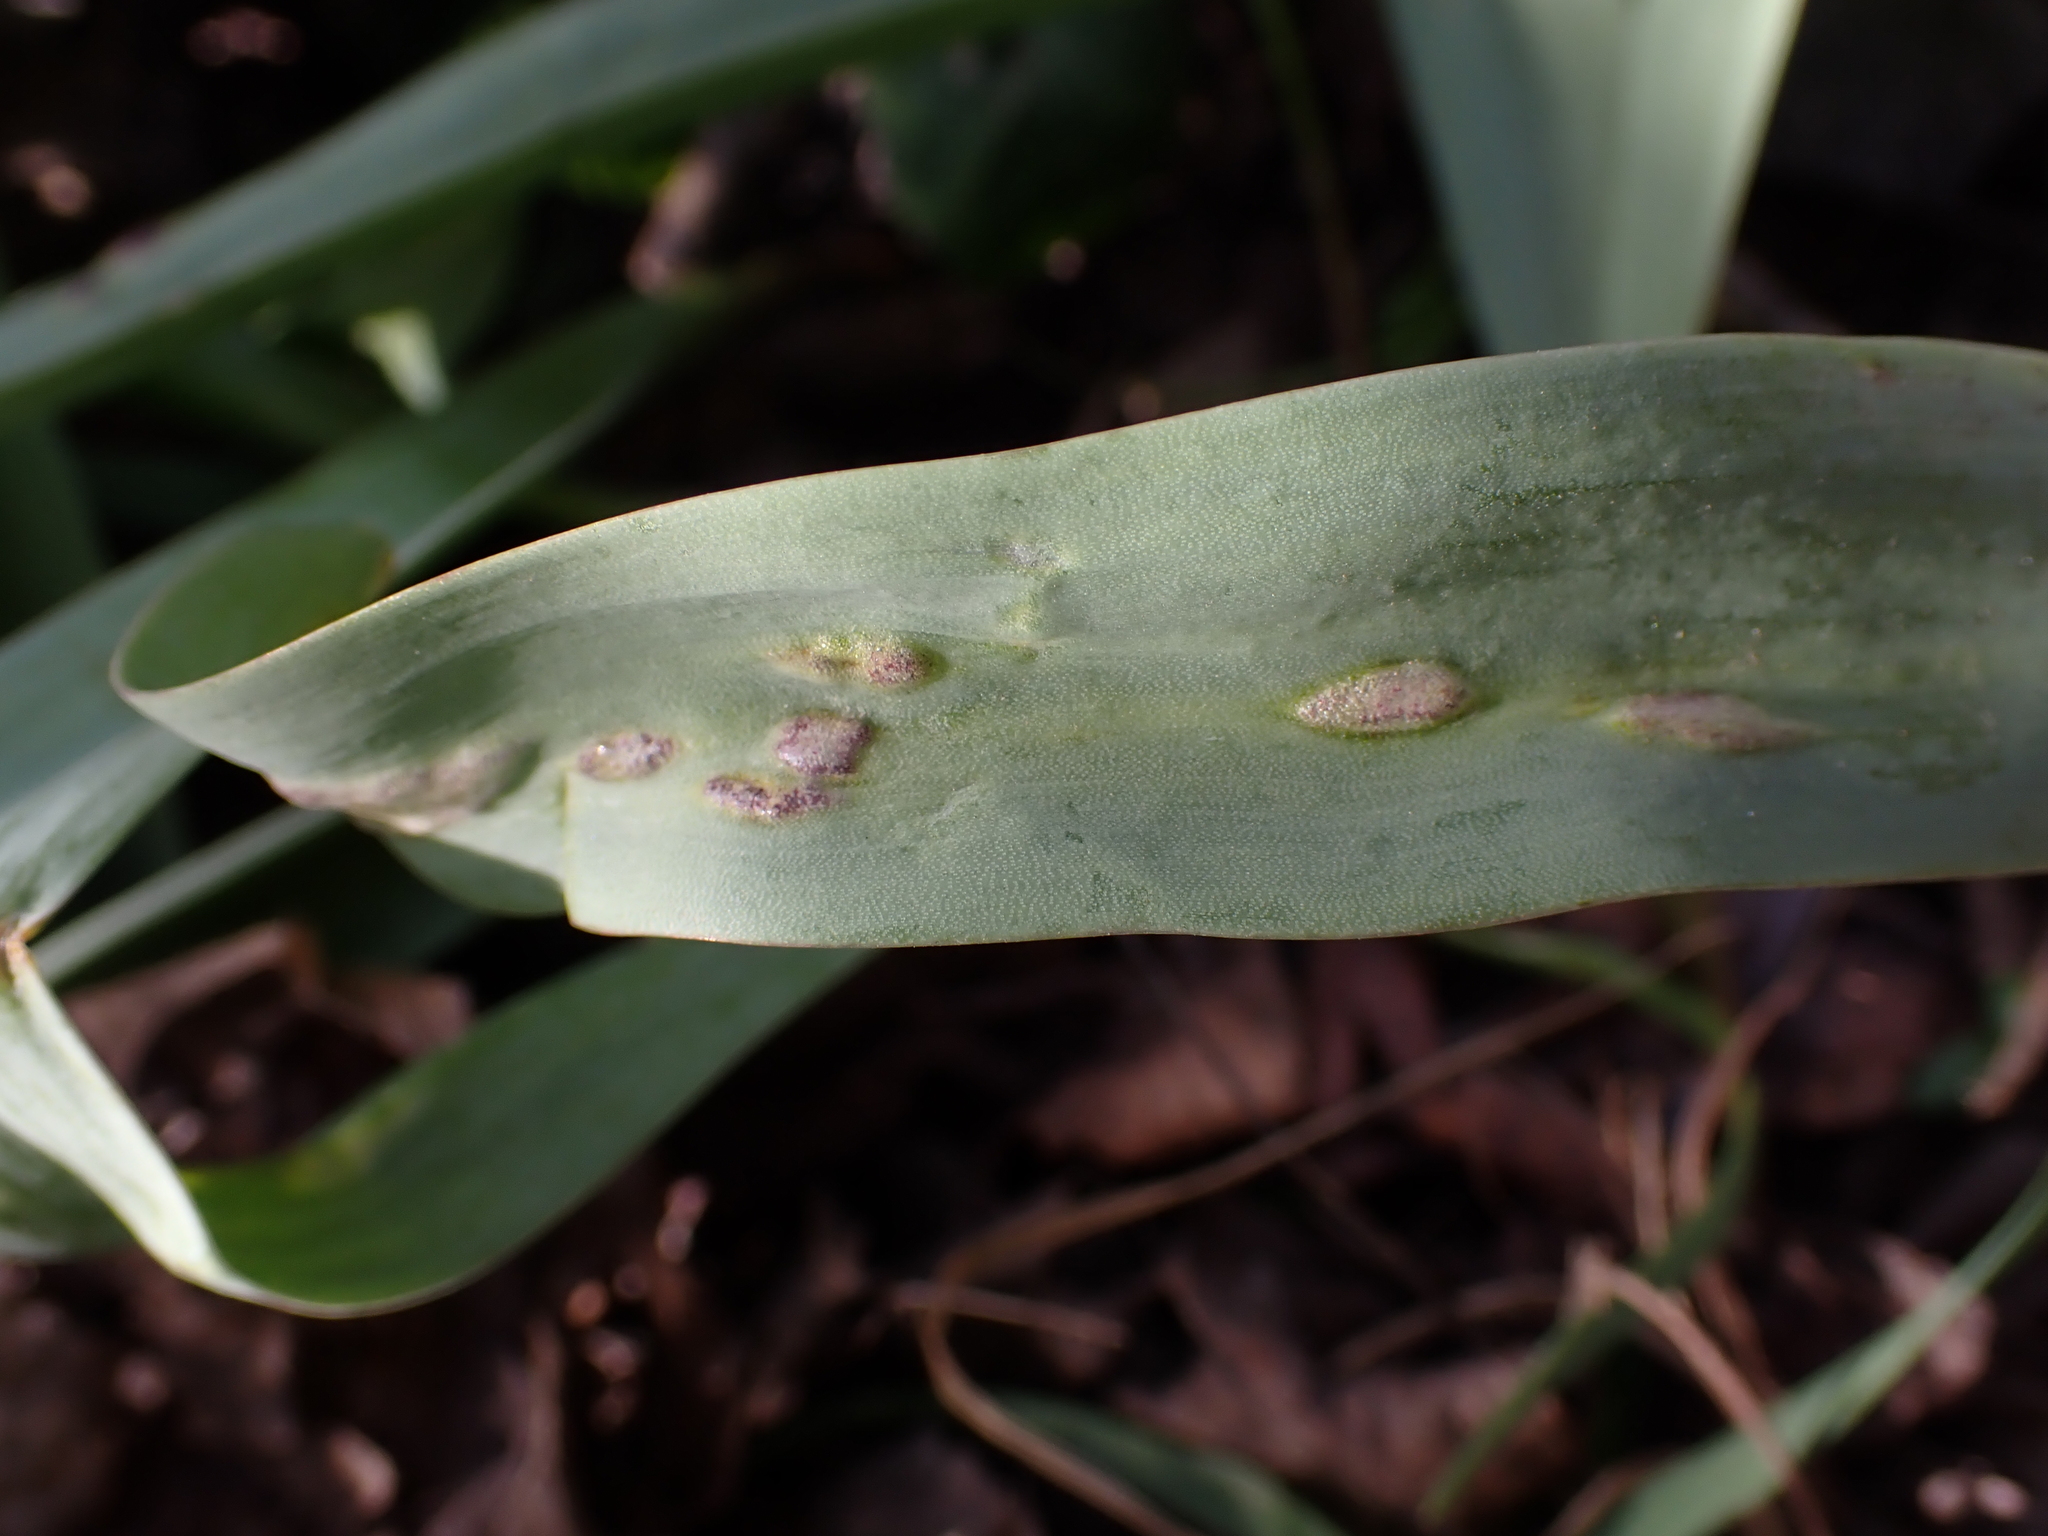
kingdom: Fungi
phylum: Basidiomycota
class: Ustilaginomycetes
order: Urocystidales
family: Urocystidaceae
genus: Vankya
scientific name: Vankya heufleri
